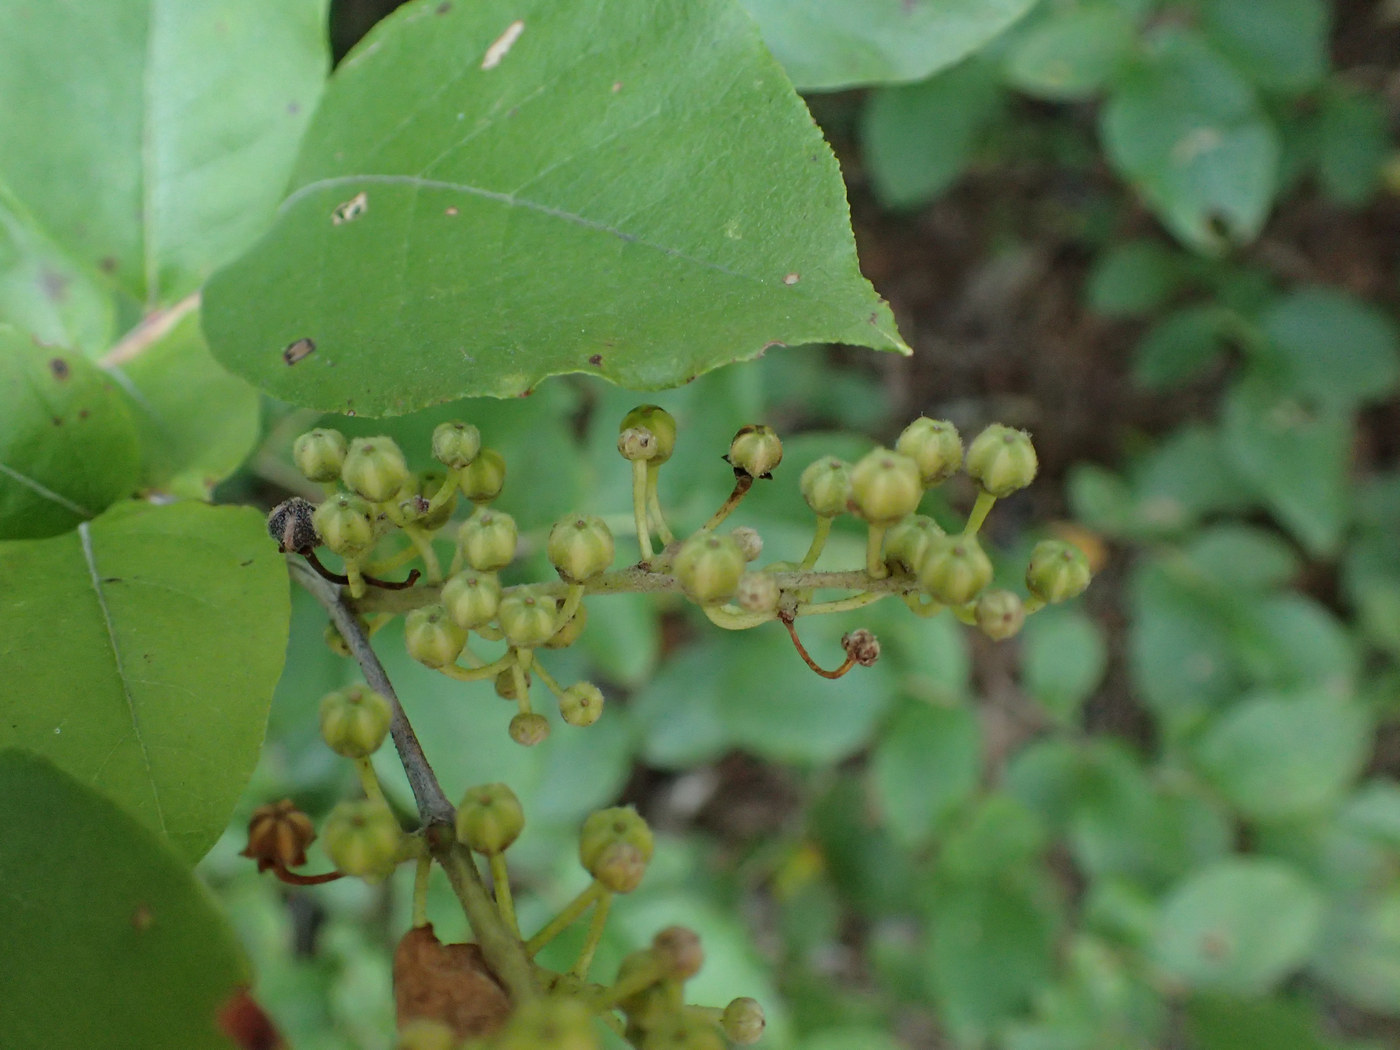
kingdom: Plantae
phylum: Tracheophyta
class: Magnoliopsida
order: Ericales
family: Ericaceae
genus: Lyonia
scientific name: Lyonia ligustrina
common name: Maleberry
